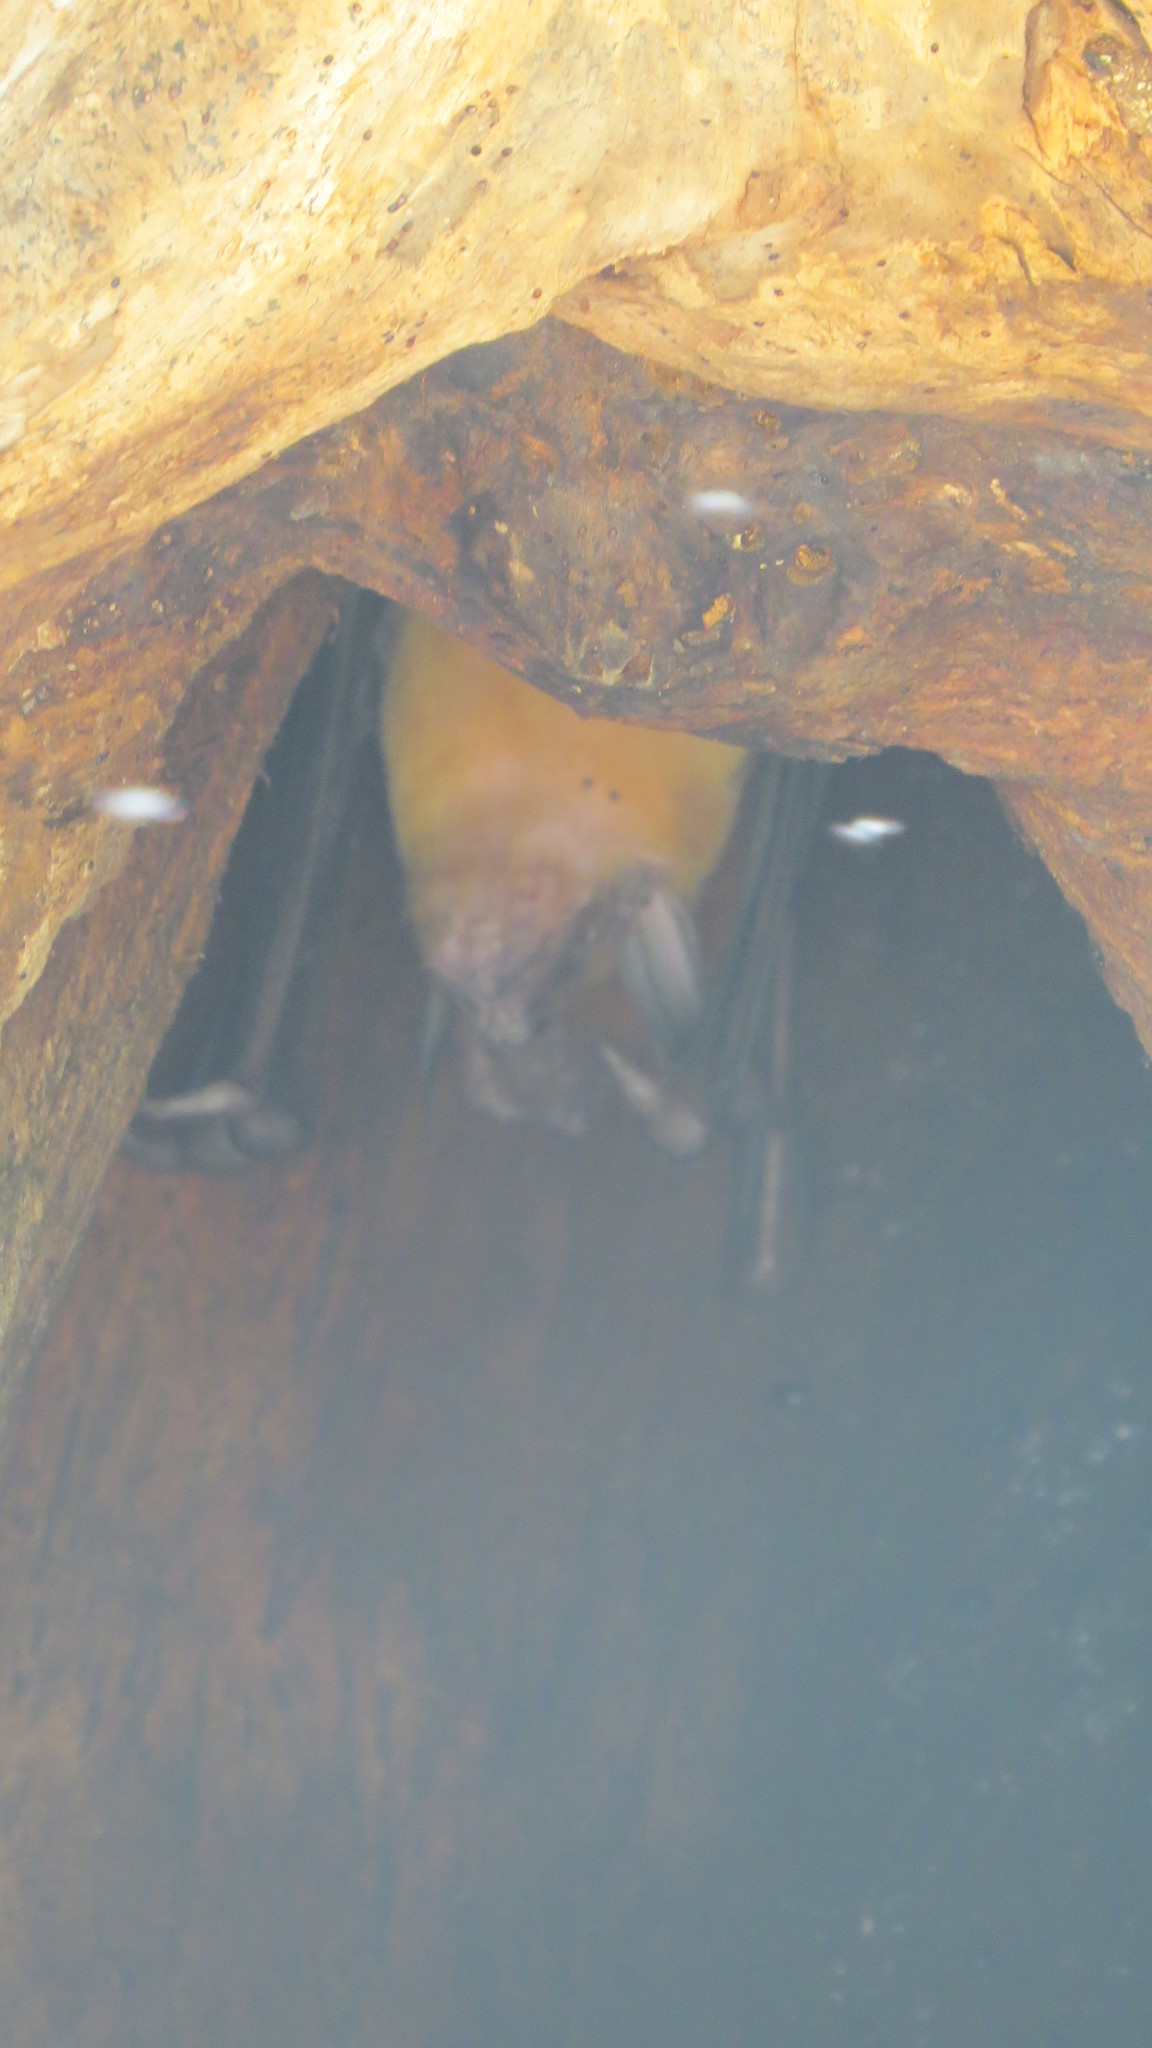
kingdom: Animalia
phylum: Chordata
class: Mammalia
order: Chiroptera
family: Noctilionidae
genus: Noctilio
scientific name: Noctilio leporinus
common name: Greater bulldog bat
